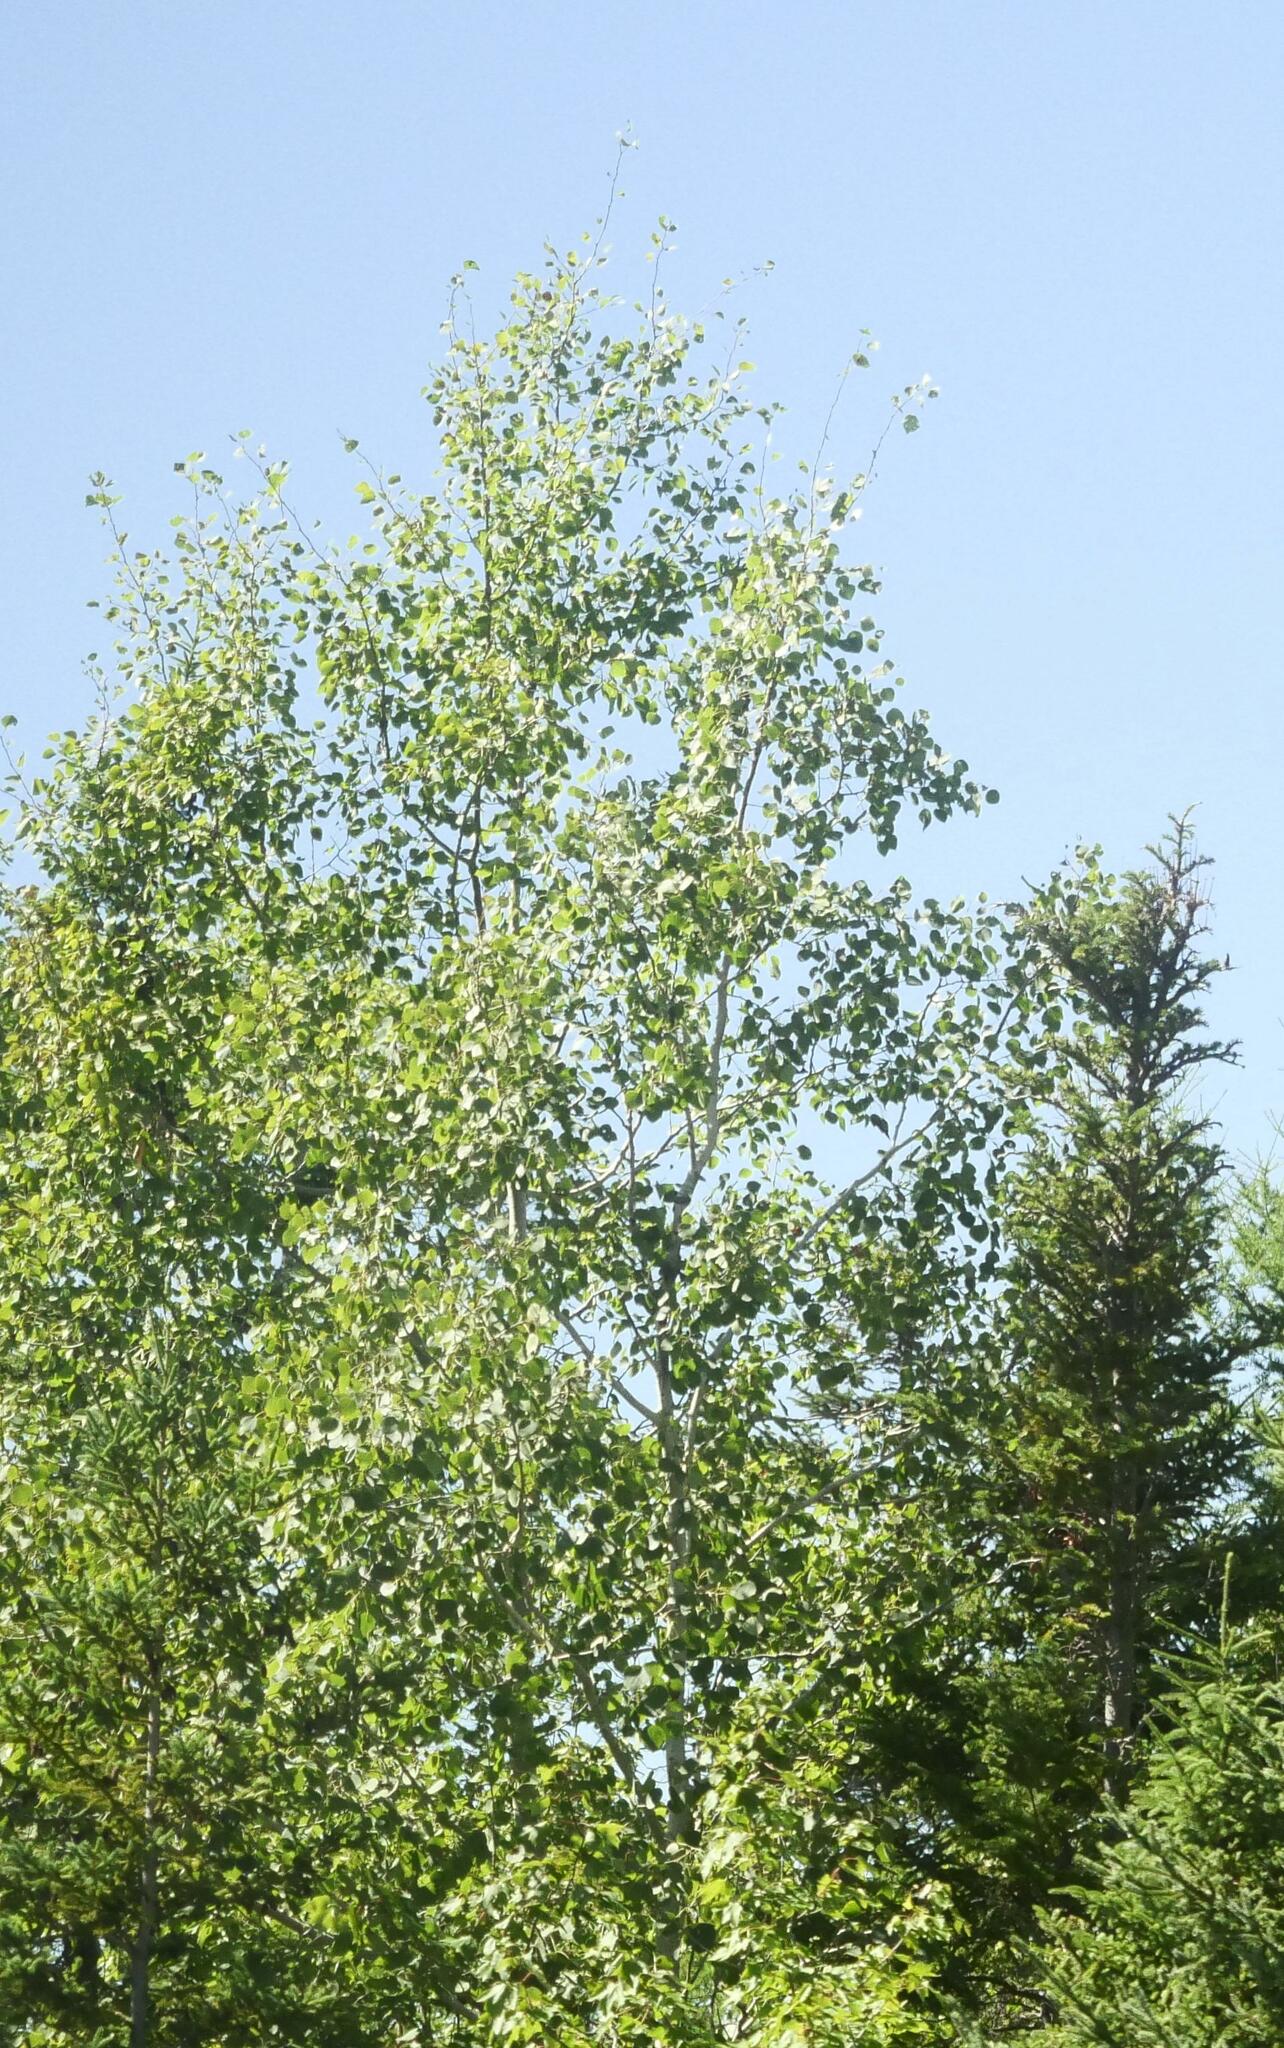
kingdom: Plantae
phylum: Tracheophyta
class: Magnoliopsida
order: Malpighiales
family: Salicaceae
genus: Populus
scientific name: Populus tremuloides
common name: Quaking aspen
